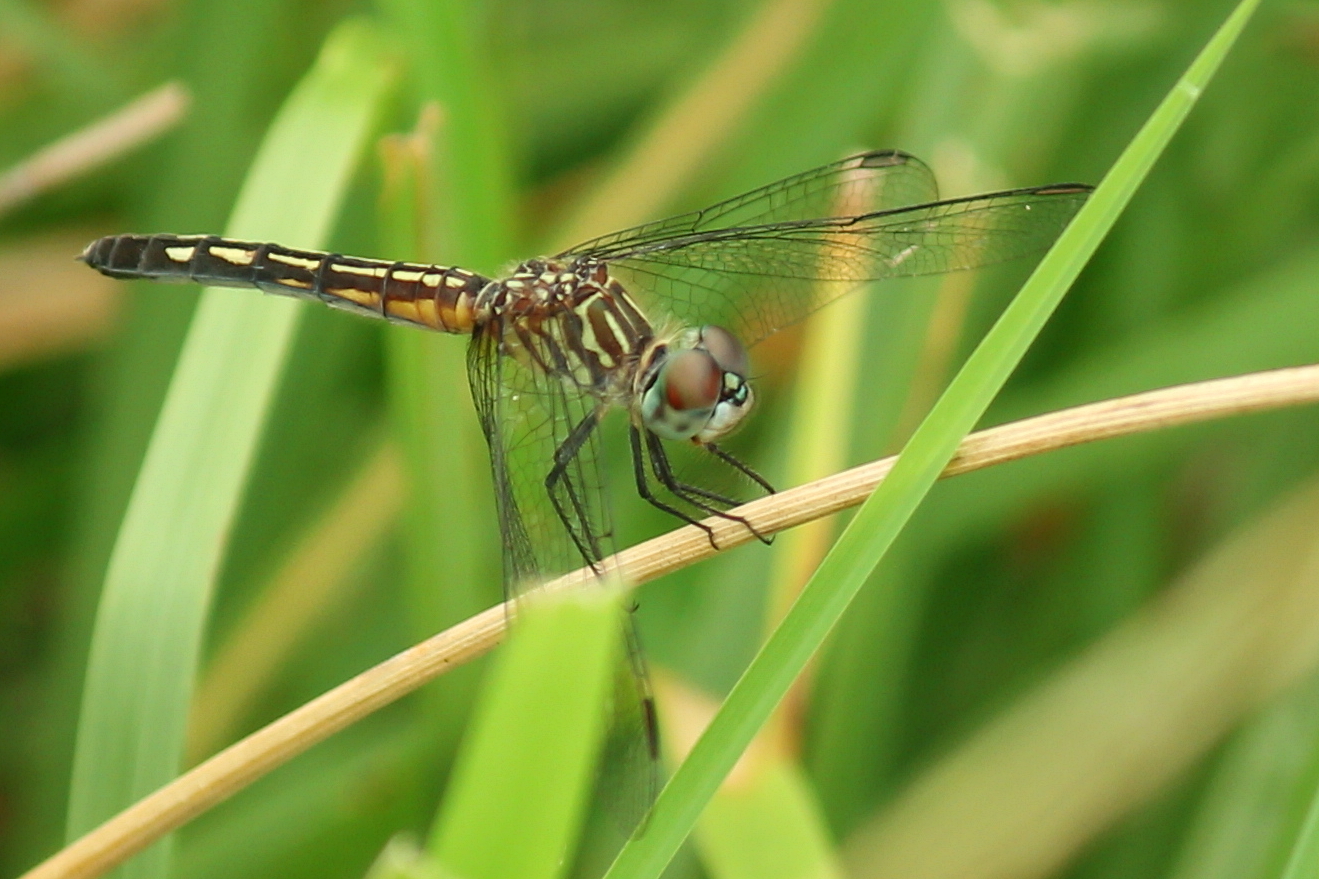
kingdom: Animalia
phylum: Arthropoda
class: Insecta
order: Odonata
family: Libellulidae
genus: Pachydiplax
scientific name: Pachydiplax longipennis
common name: Blue dasher
